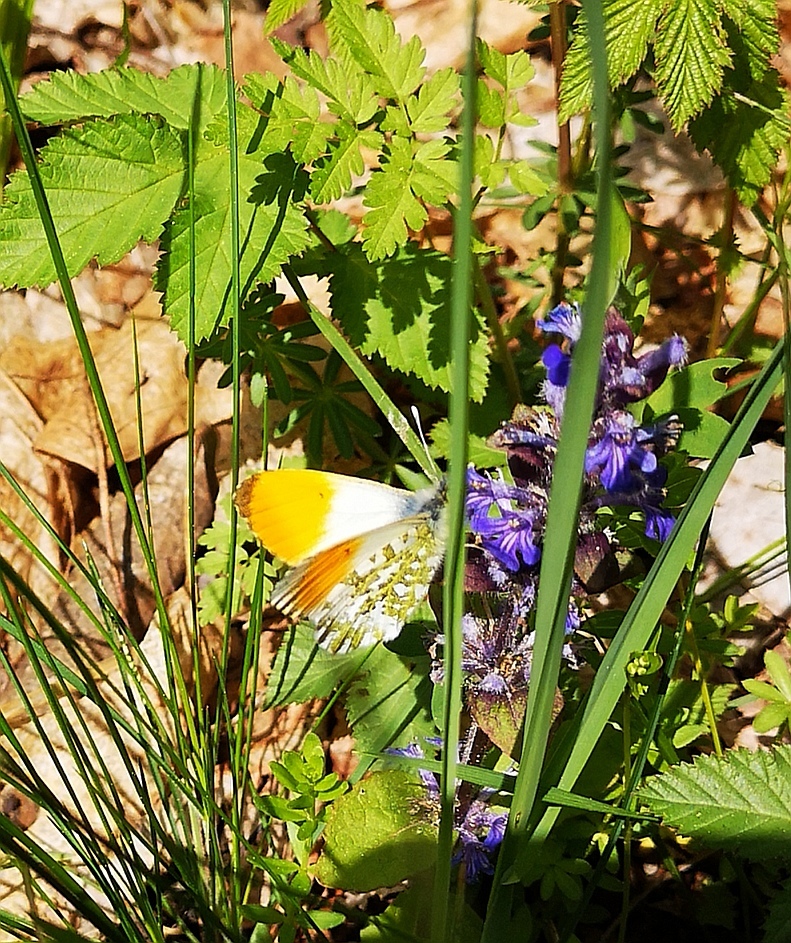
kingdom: Animalia
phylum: Arthropoda
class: Insecta
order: Lepidoptera
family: Pieridae
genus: Anthocharis
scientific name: Anthocharis cardamines
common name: Orange-tip
